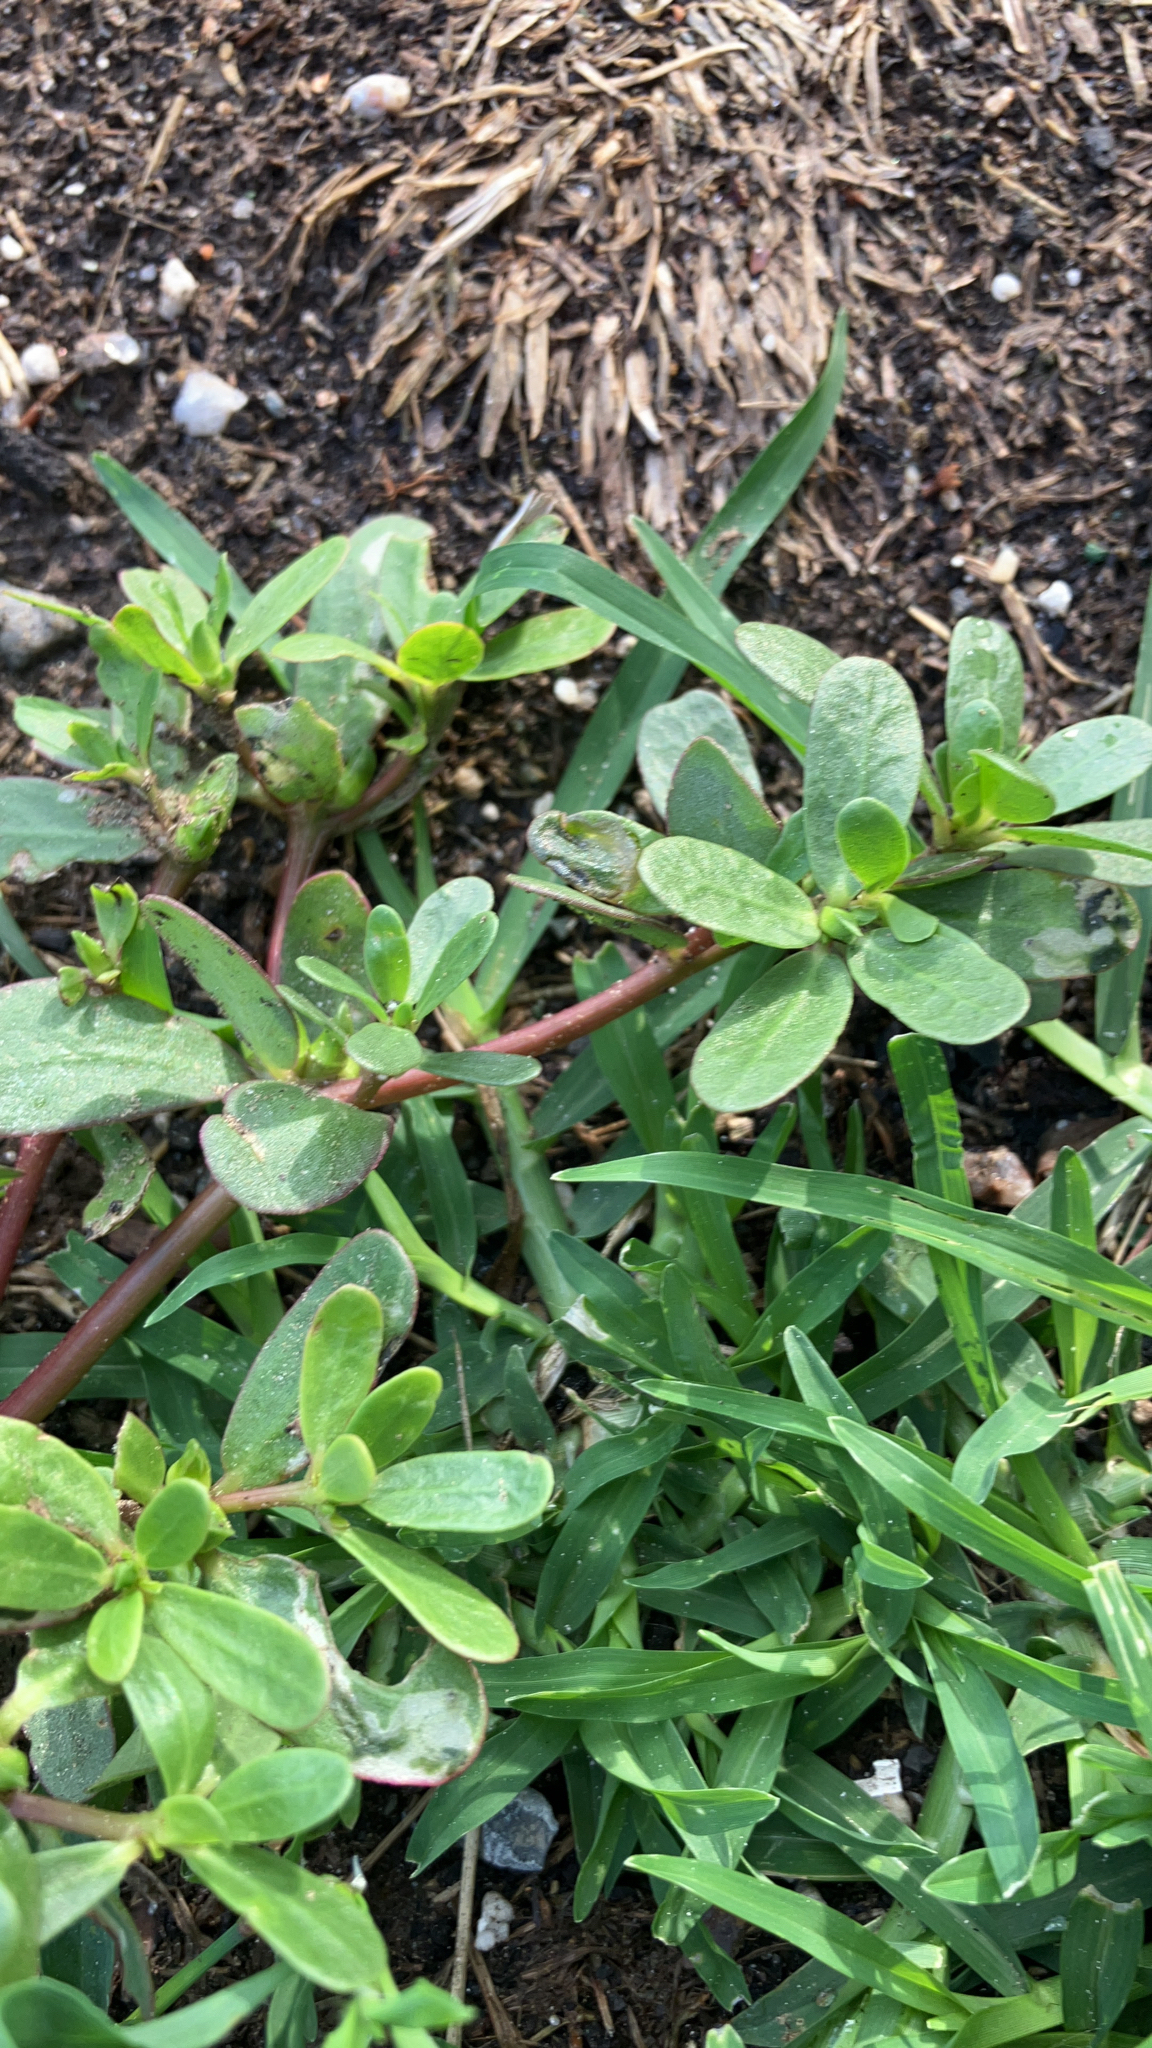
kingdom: Plantae
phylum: Tracheophyta
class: Magnoliopsida
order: Caryophyllales
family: Portulacaceae
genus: Portulaca
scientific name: Portulaca oleracea
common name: Common purslane
